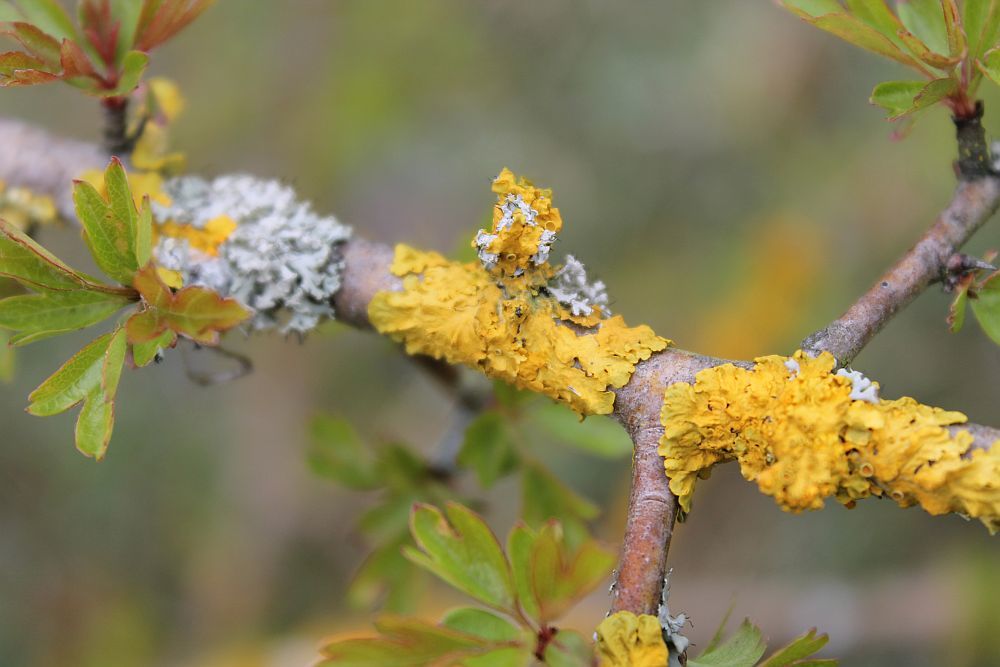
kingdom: Fungi
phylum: Ascomycota
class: Lecanoromycetes
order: Teloschistales
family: Teloschistaceae
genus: Xanthoria
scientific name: Xanthoria parietina
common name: Common orange lichen
